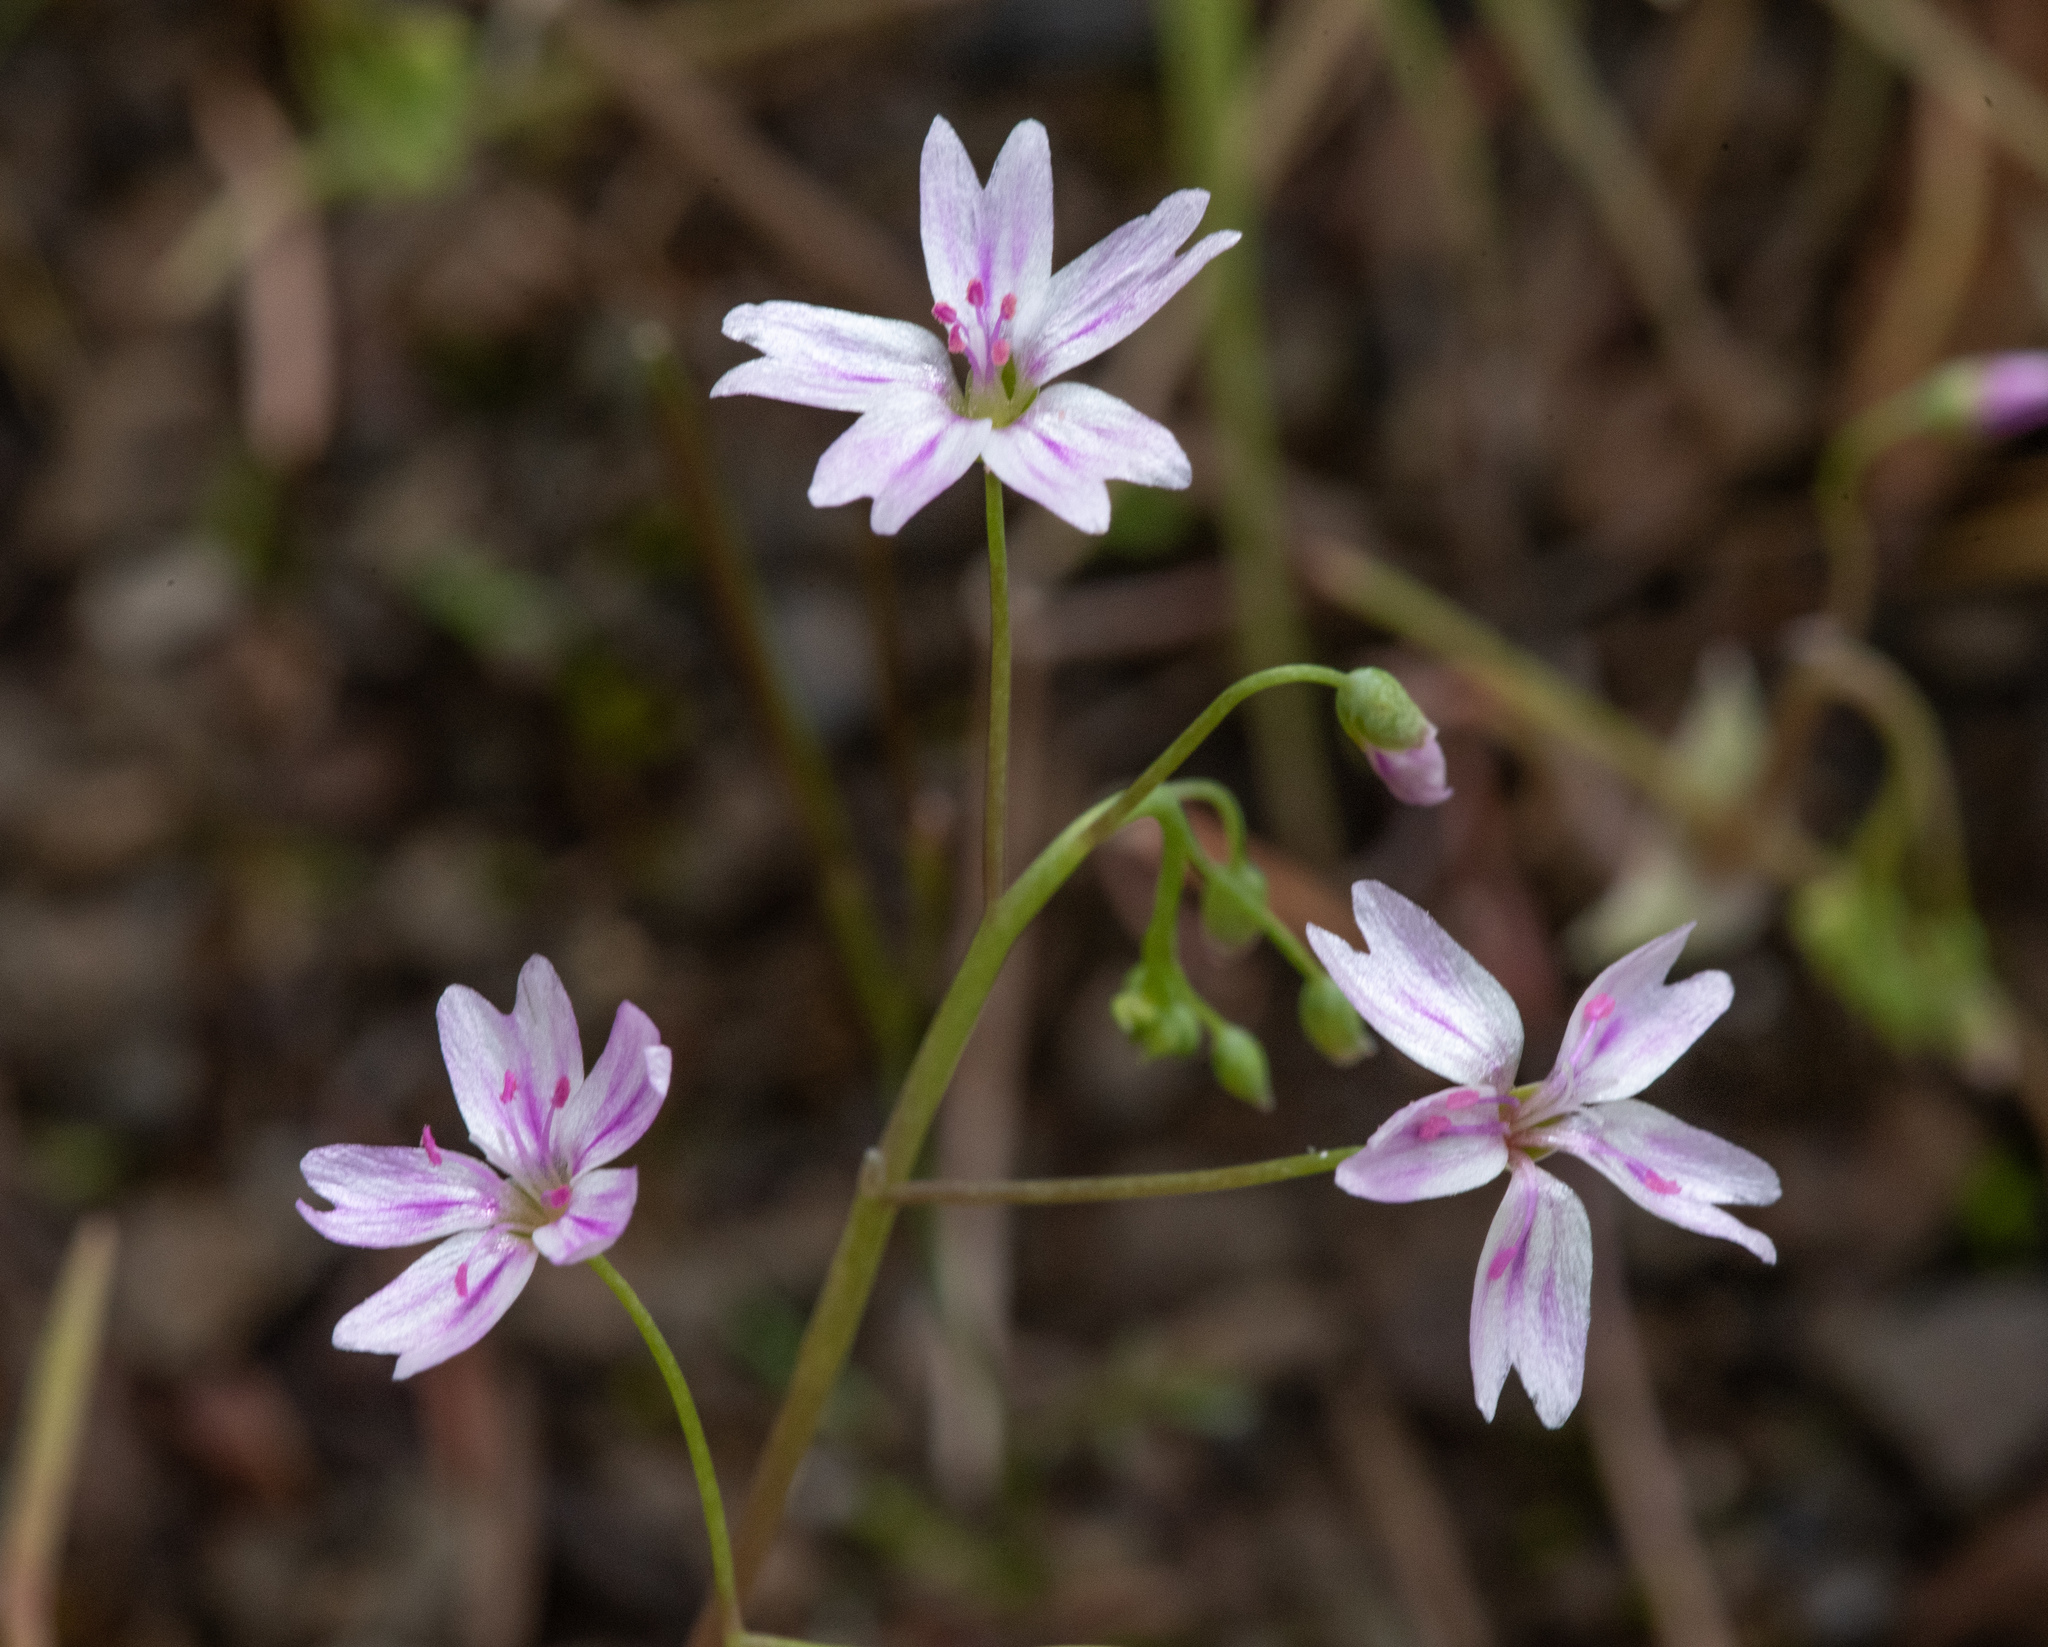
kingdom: Plantae
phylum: Tracheophyta
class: Magnoliopsida
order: Caryophyllales
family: Montiaceae
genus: Claytonia
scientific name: Claytonia gypsophiloides
